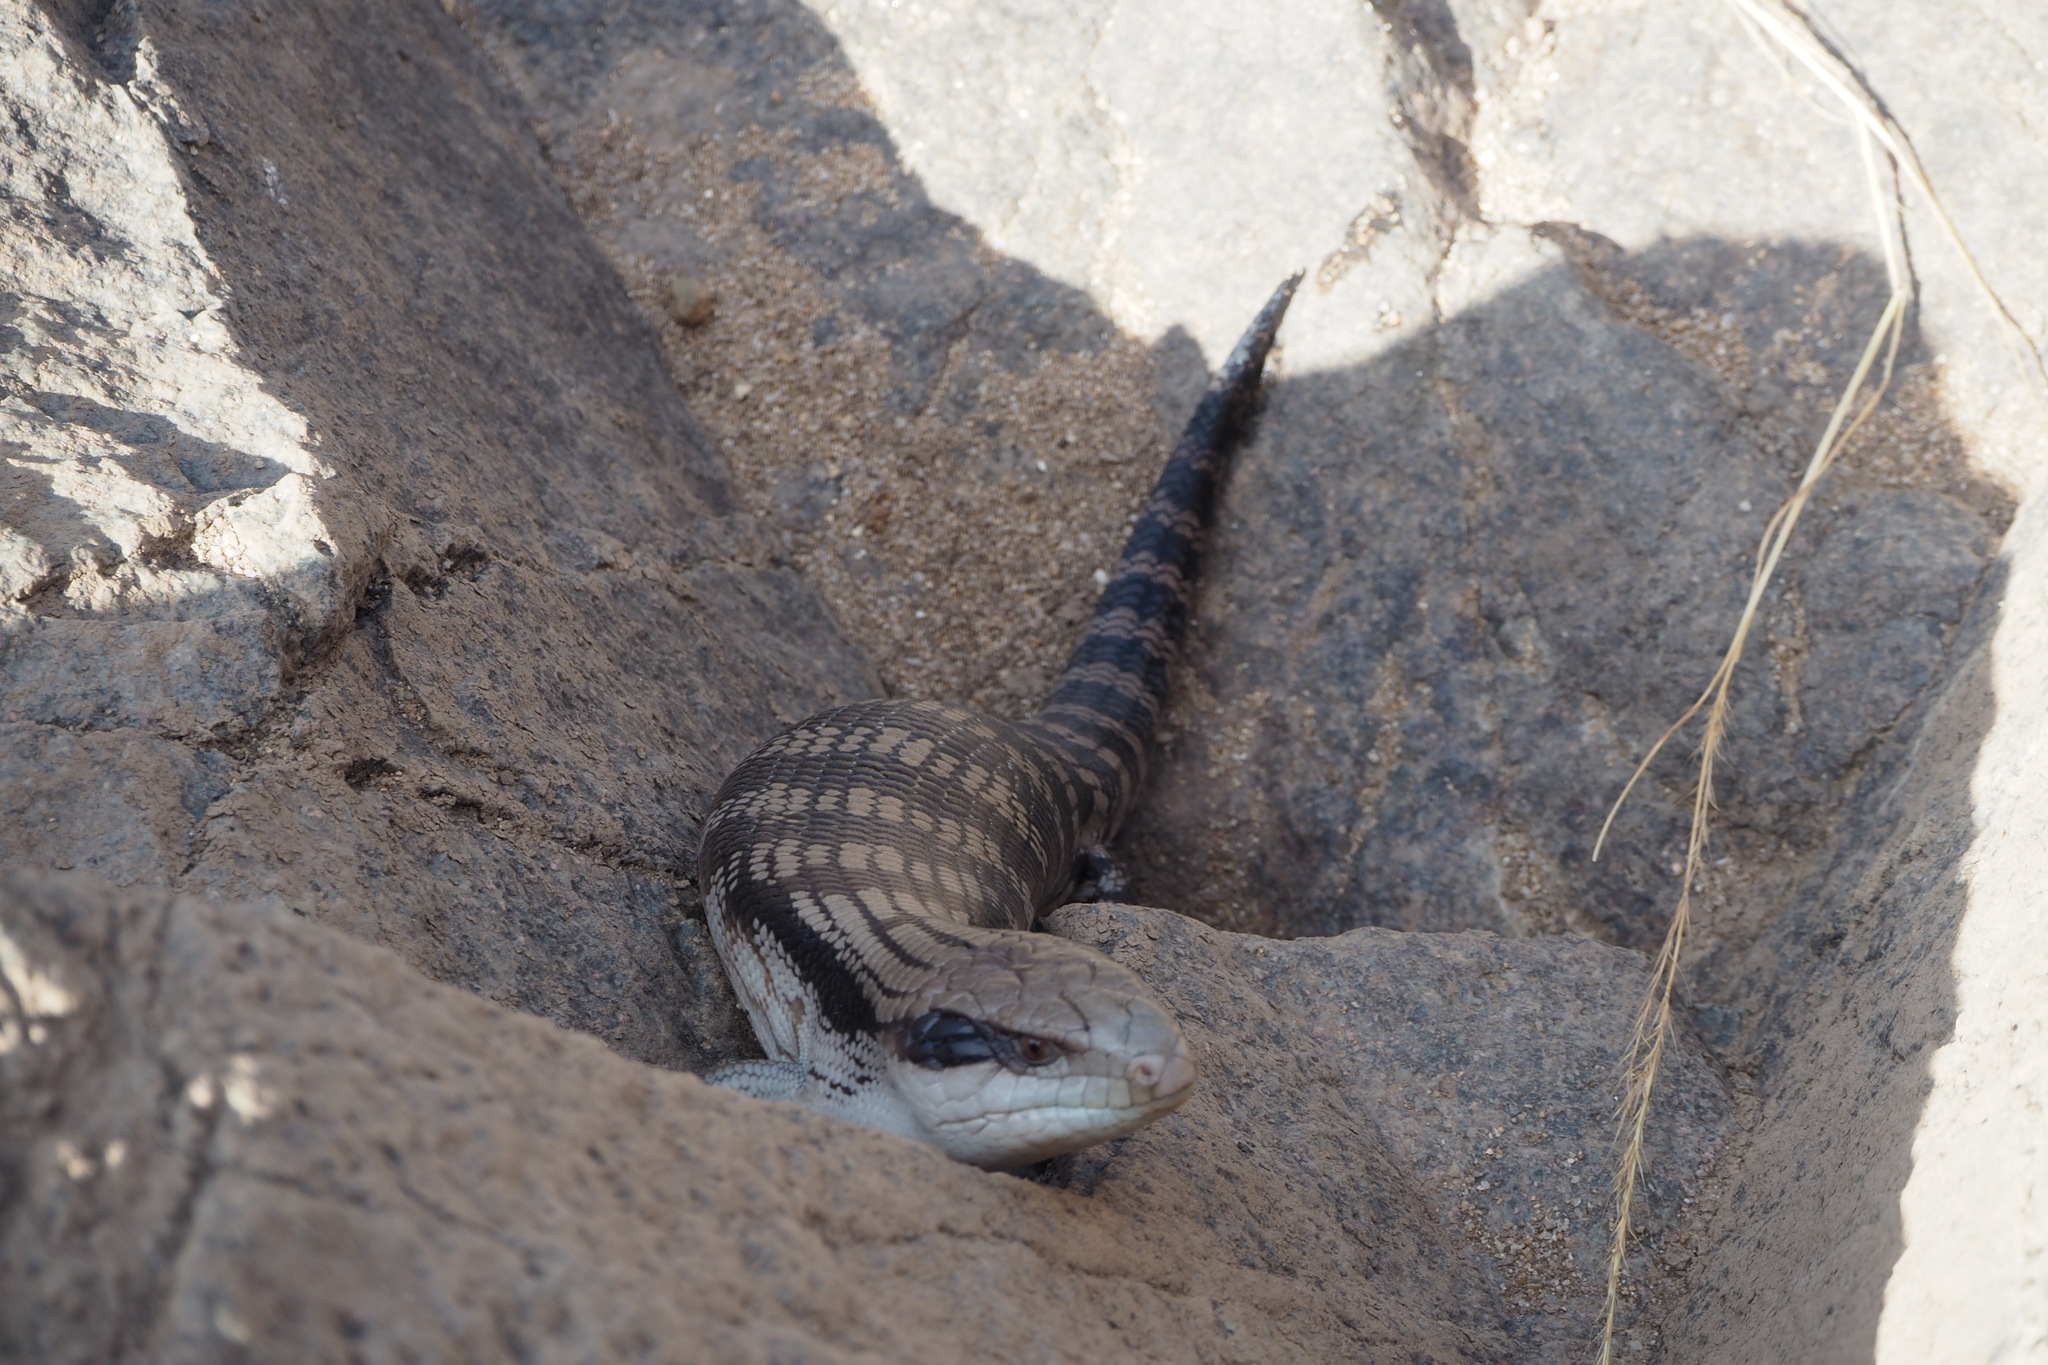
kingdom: Animalia
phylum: Chordata
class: Squamata
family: Scincidae
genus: Tiliqua
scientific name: Tiliqua scincoides
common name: Common bluetongue
